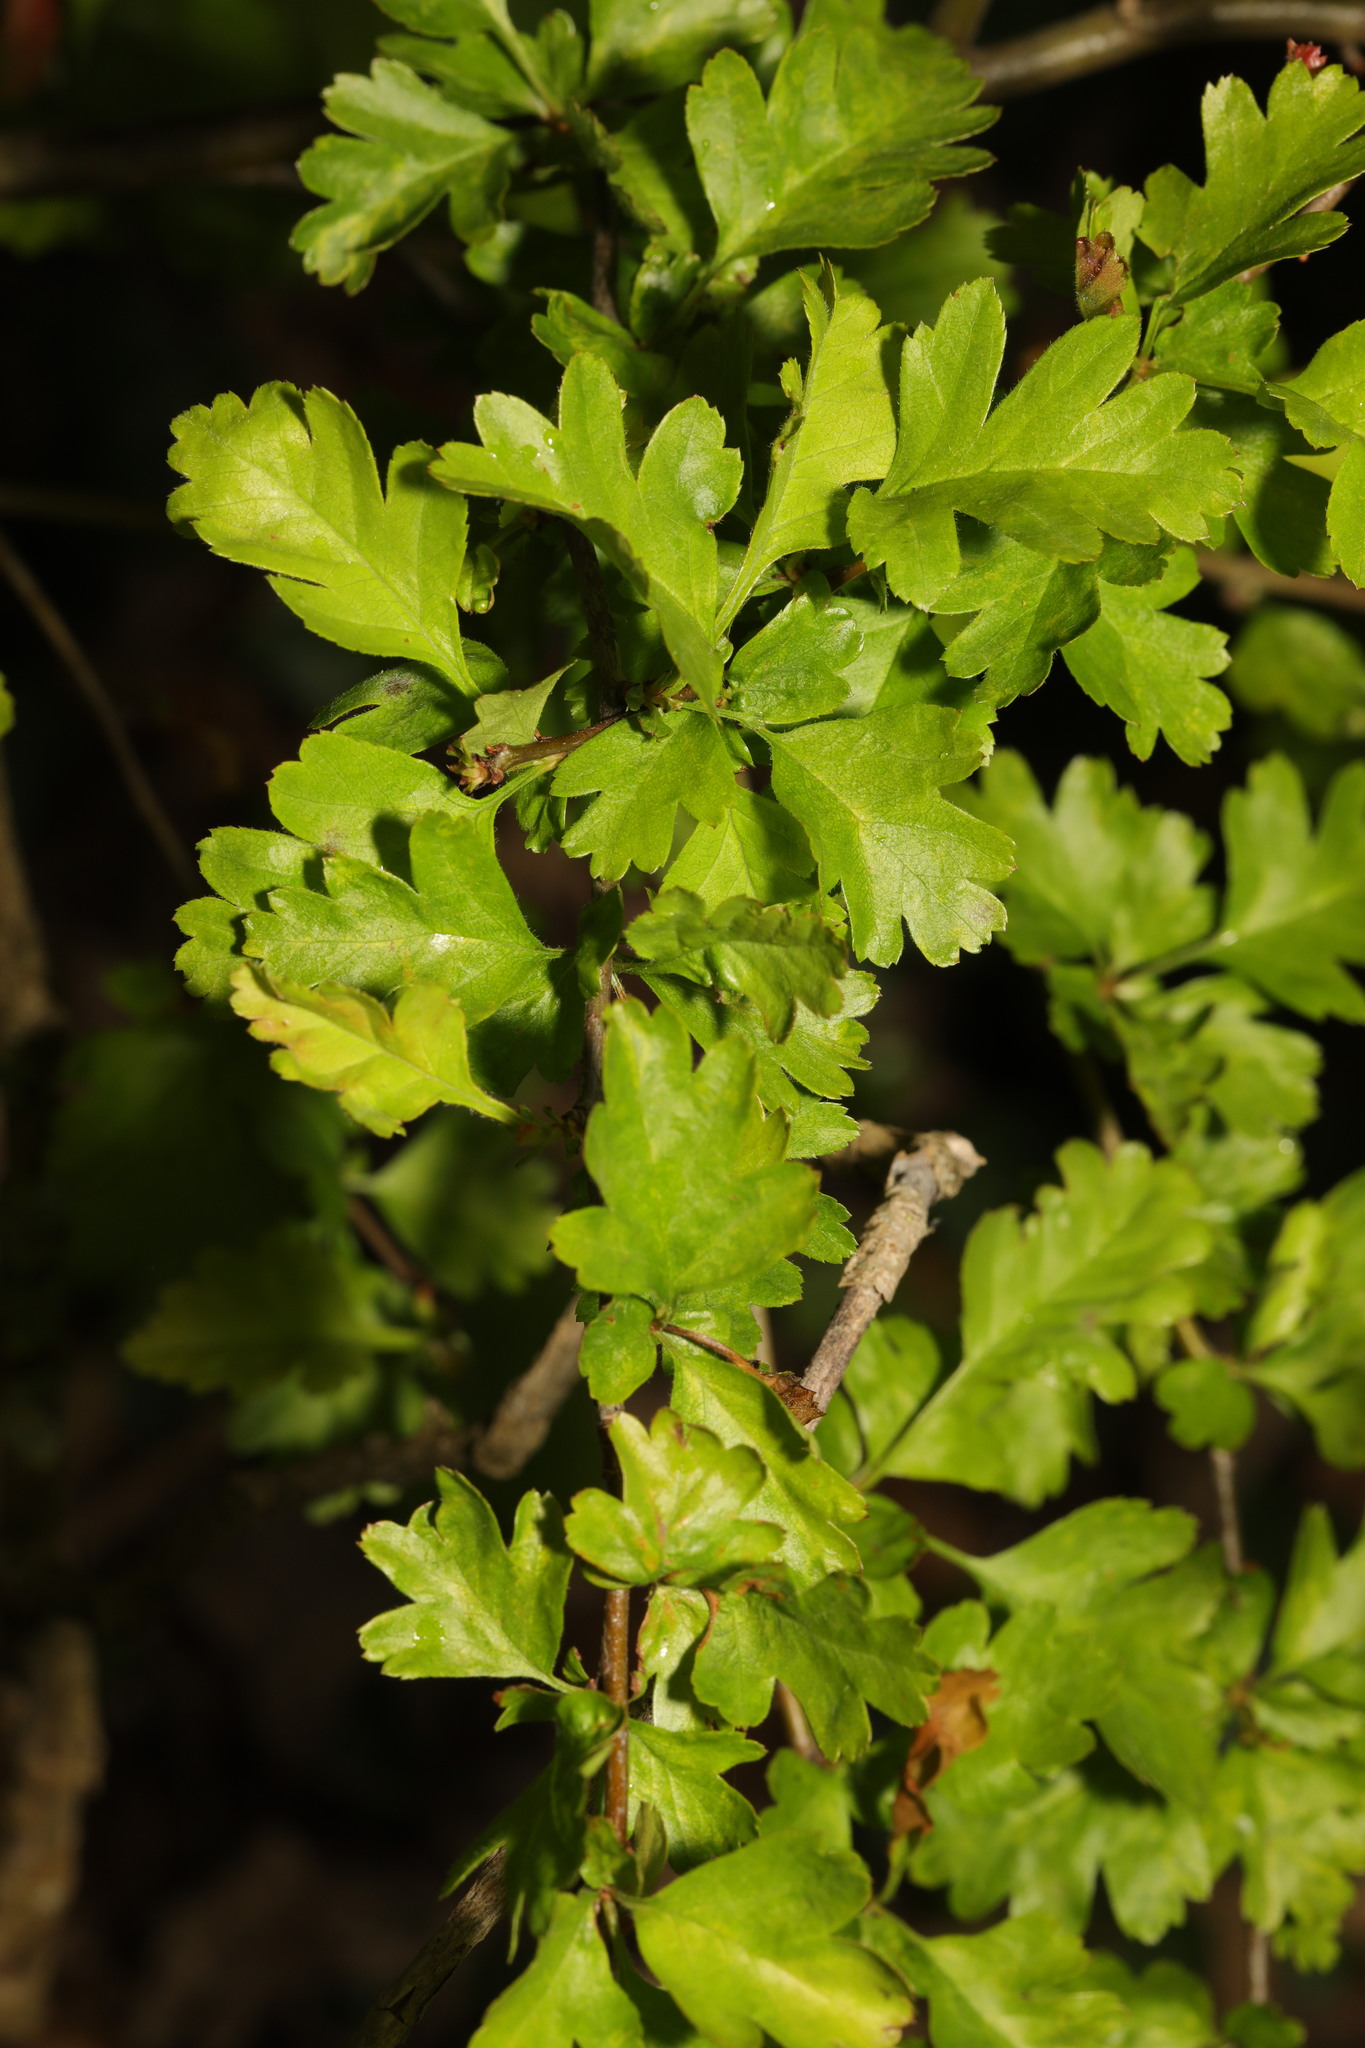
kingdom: Plantae
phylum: Tracheophyta
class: Magnoliopsida
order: Rosales
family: Rosaceae
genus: Crataegus
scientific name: Crataegus monogyna
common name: Hawthorn
